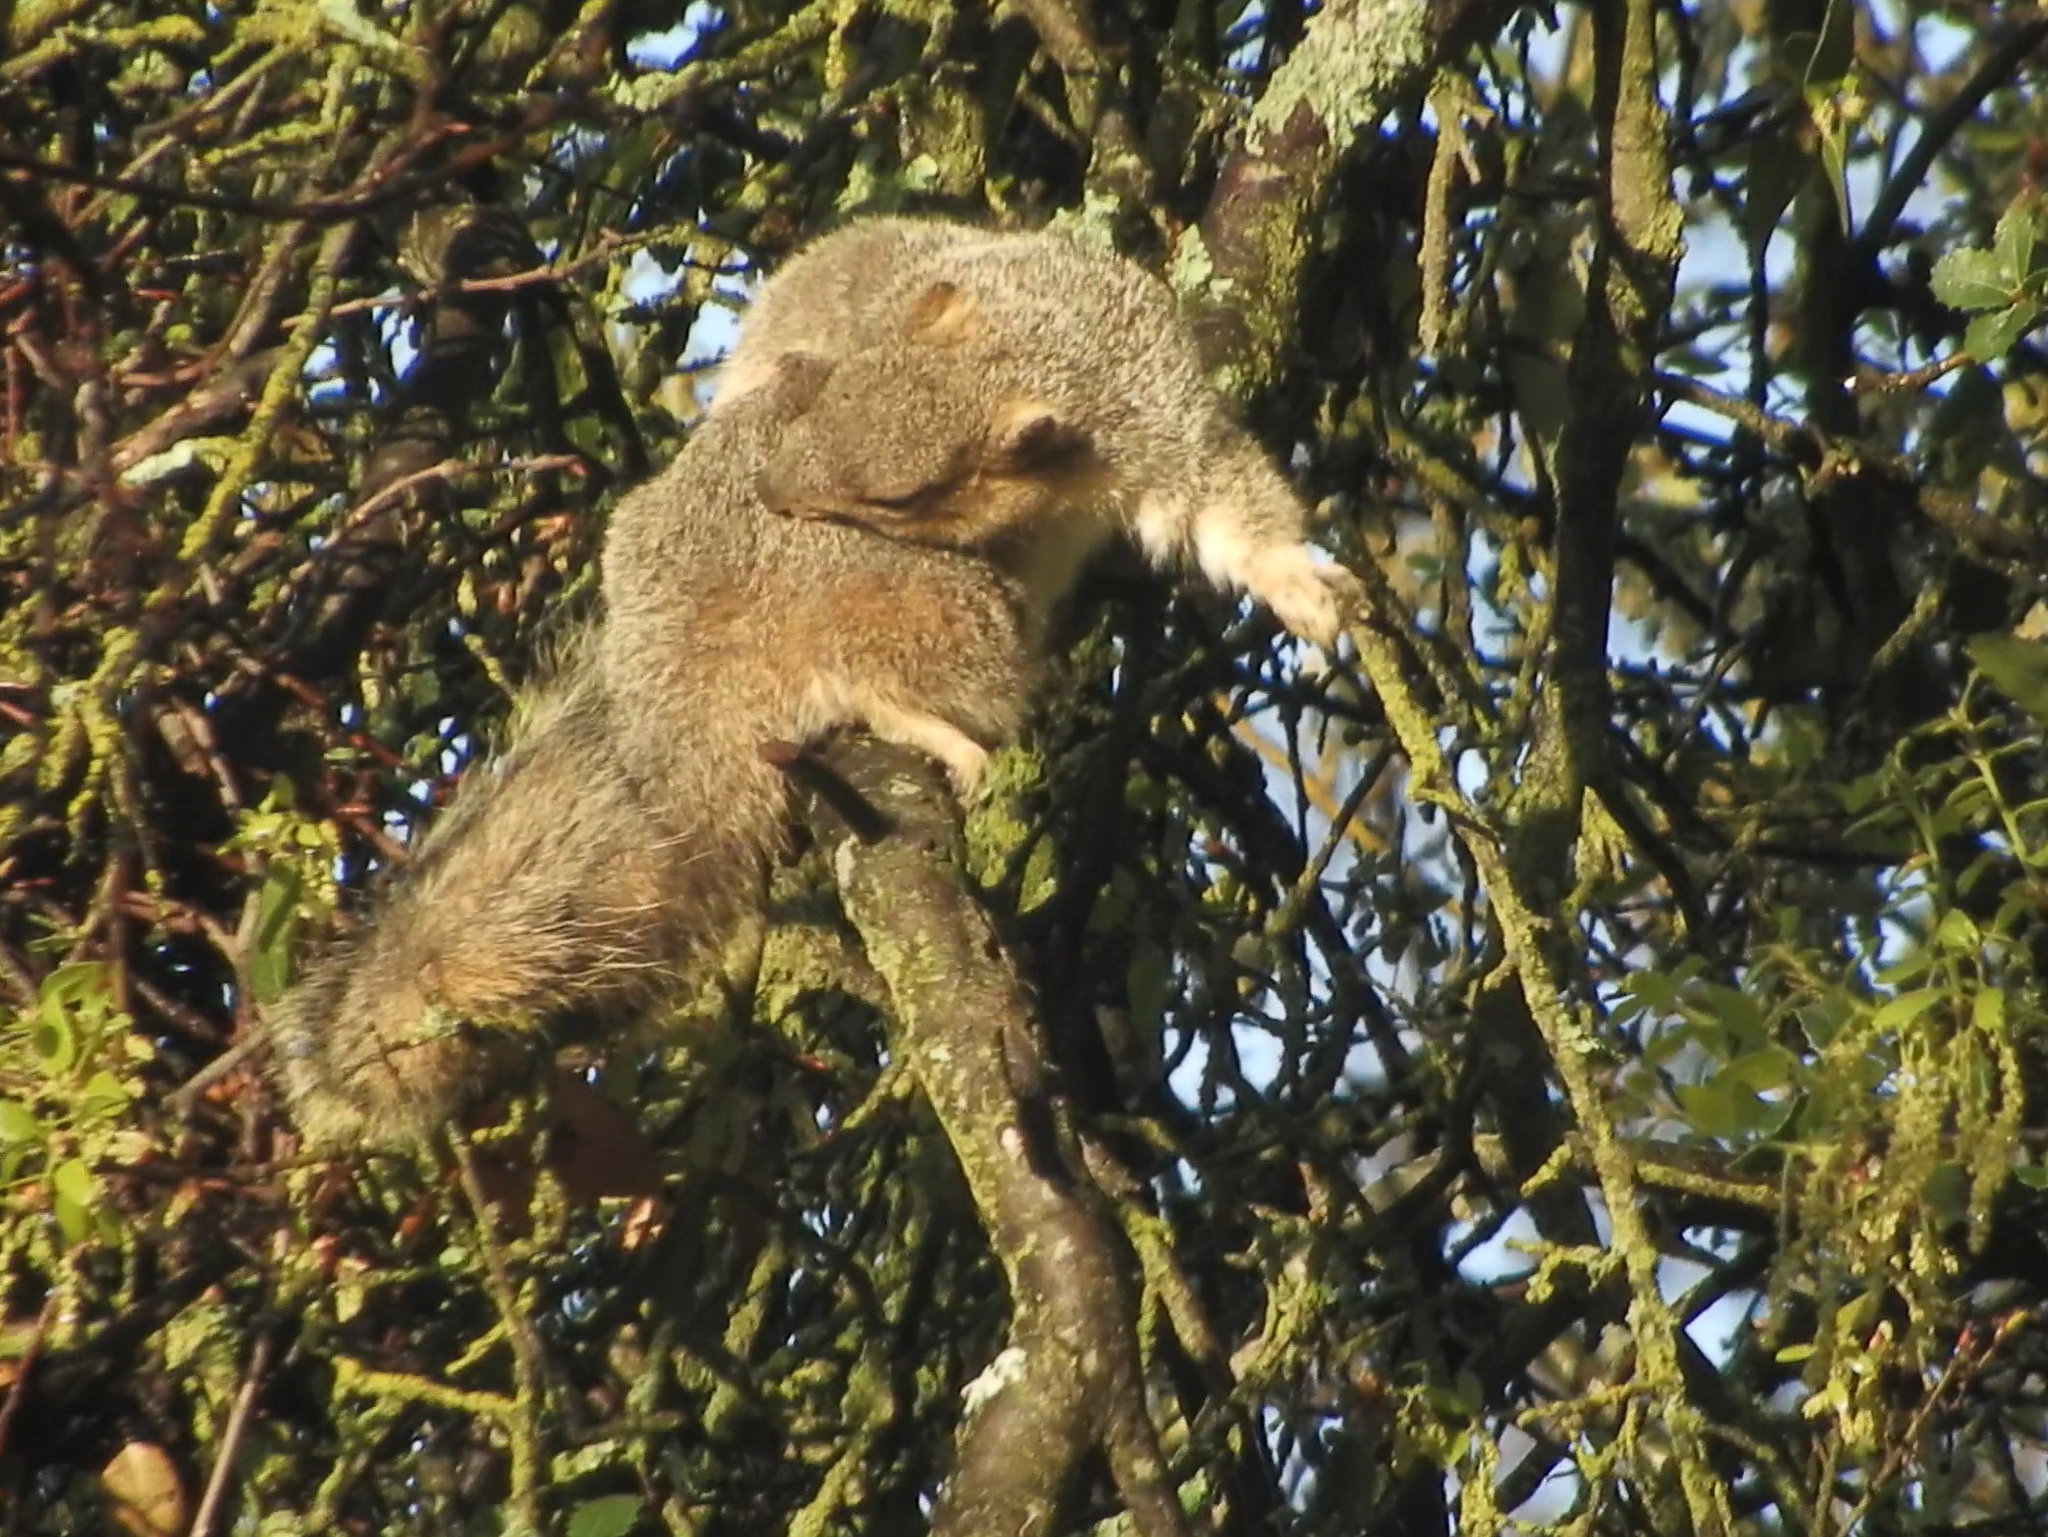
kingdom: Animalia
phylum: Chordata
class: Mammalia
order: Rodentia
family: Sciuridae
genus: Sciurus
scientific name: Sciurus niger
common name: Fox squirrel
